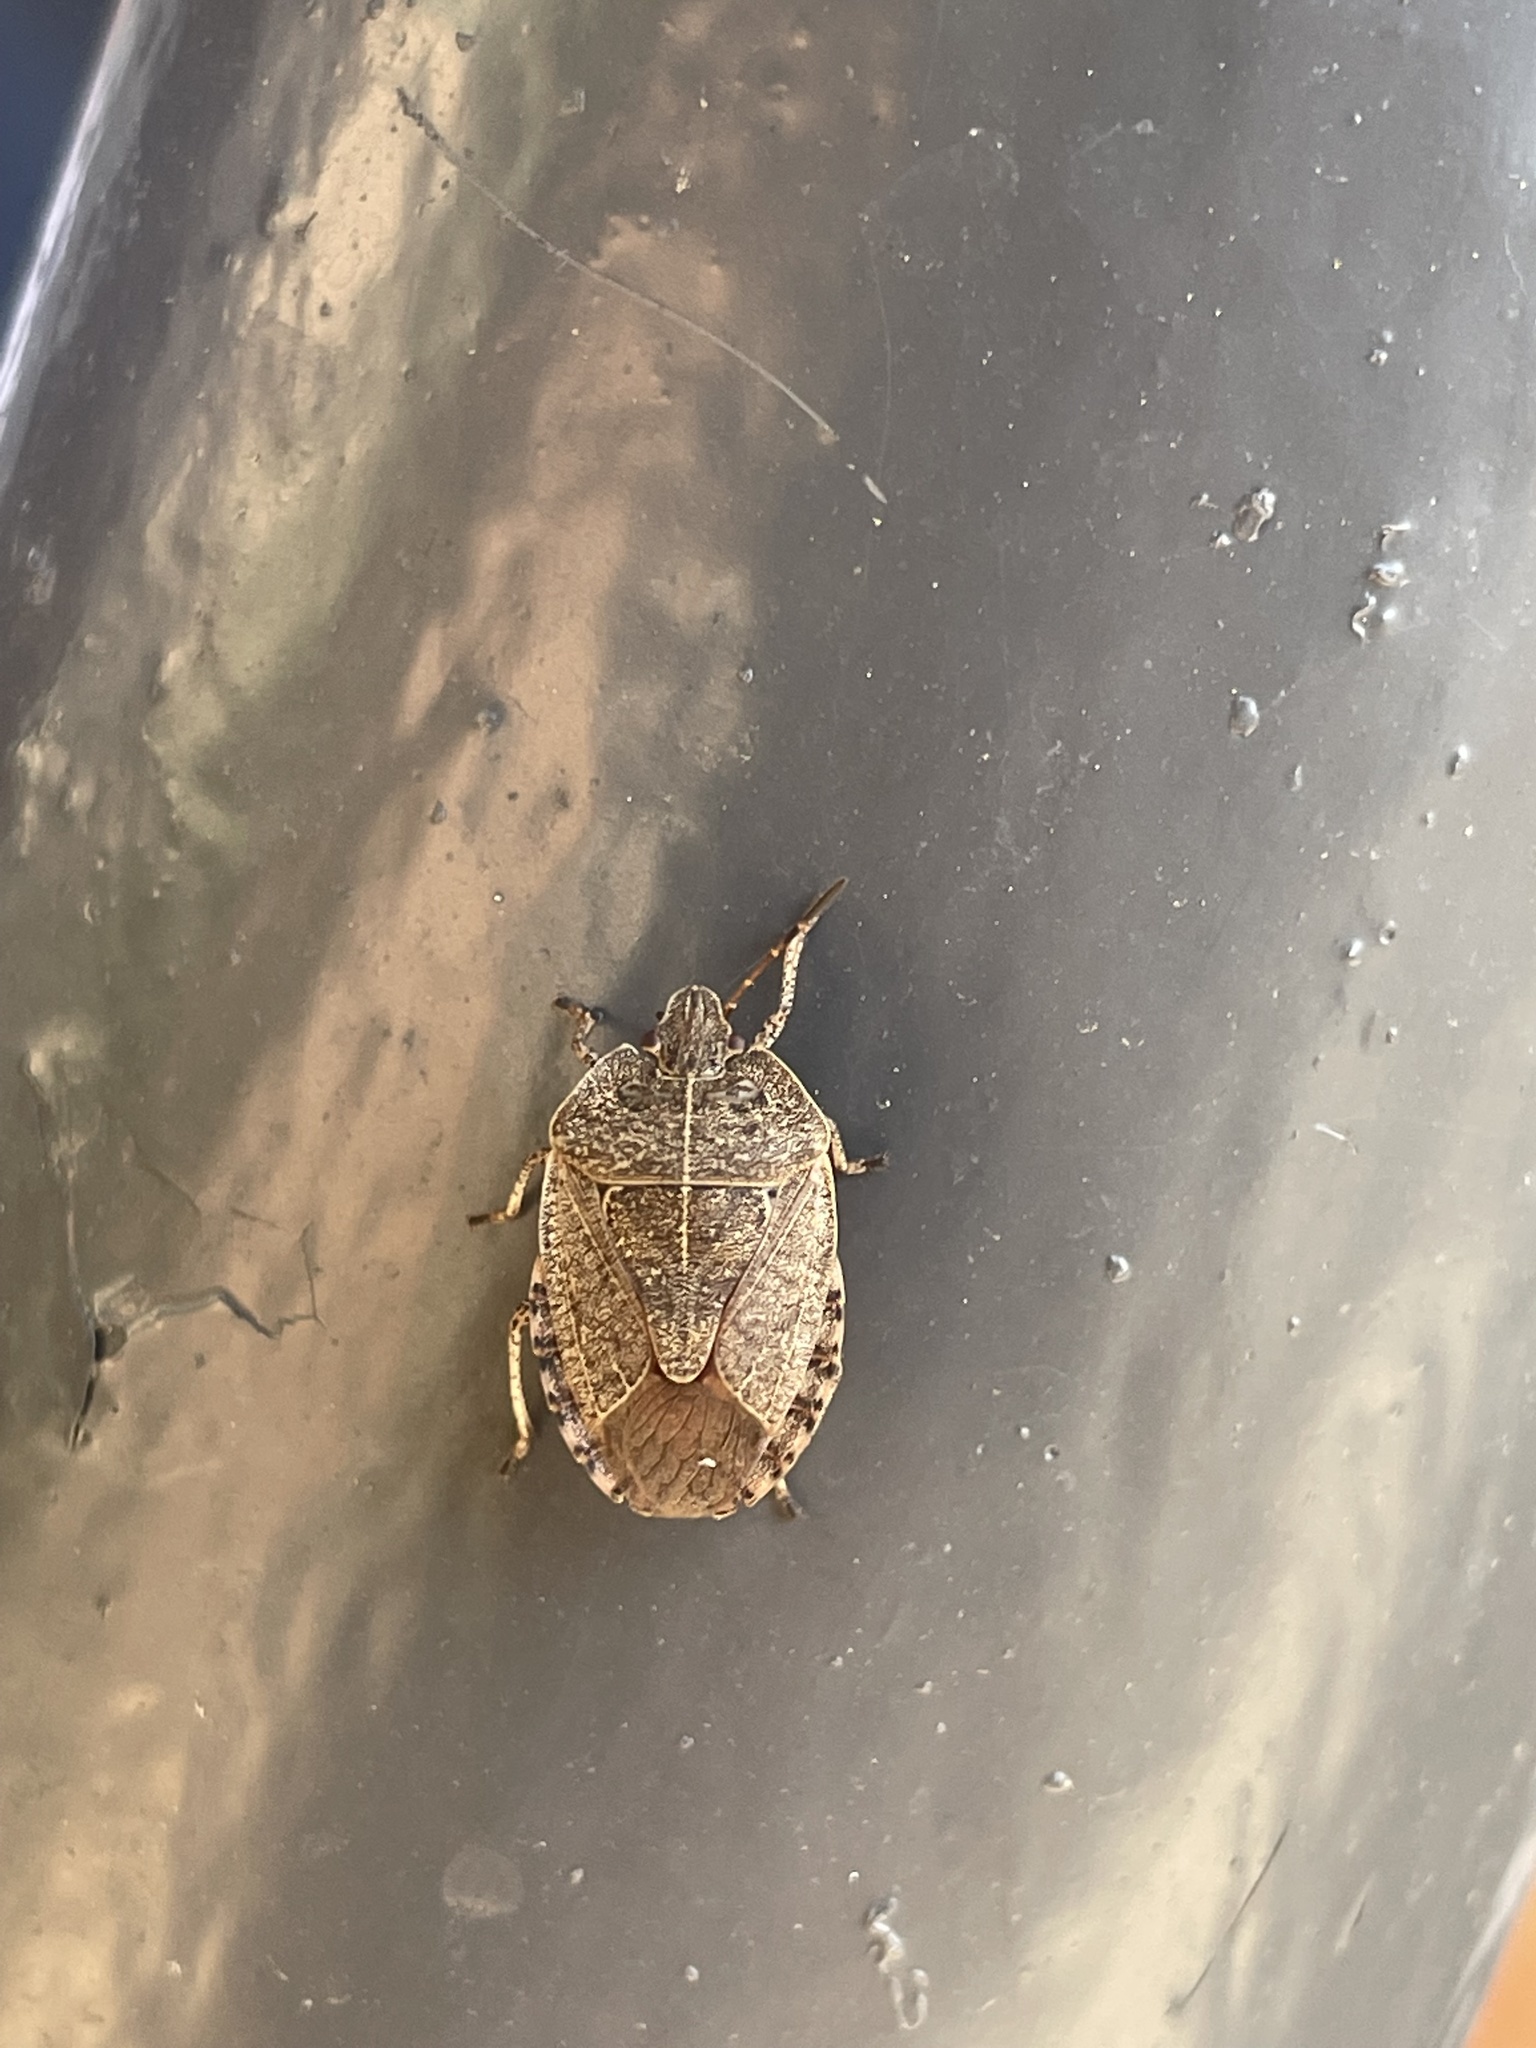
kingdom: Animalia
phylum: Arthropoda
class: Insecta
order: Hemiptera
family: Pentatomidae
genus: Menecles
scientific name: Menecles insertus
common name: Elf shoe stink bug
